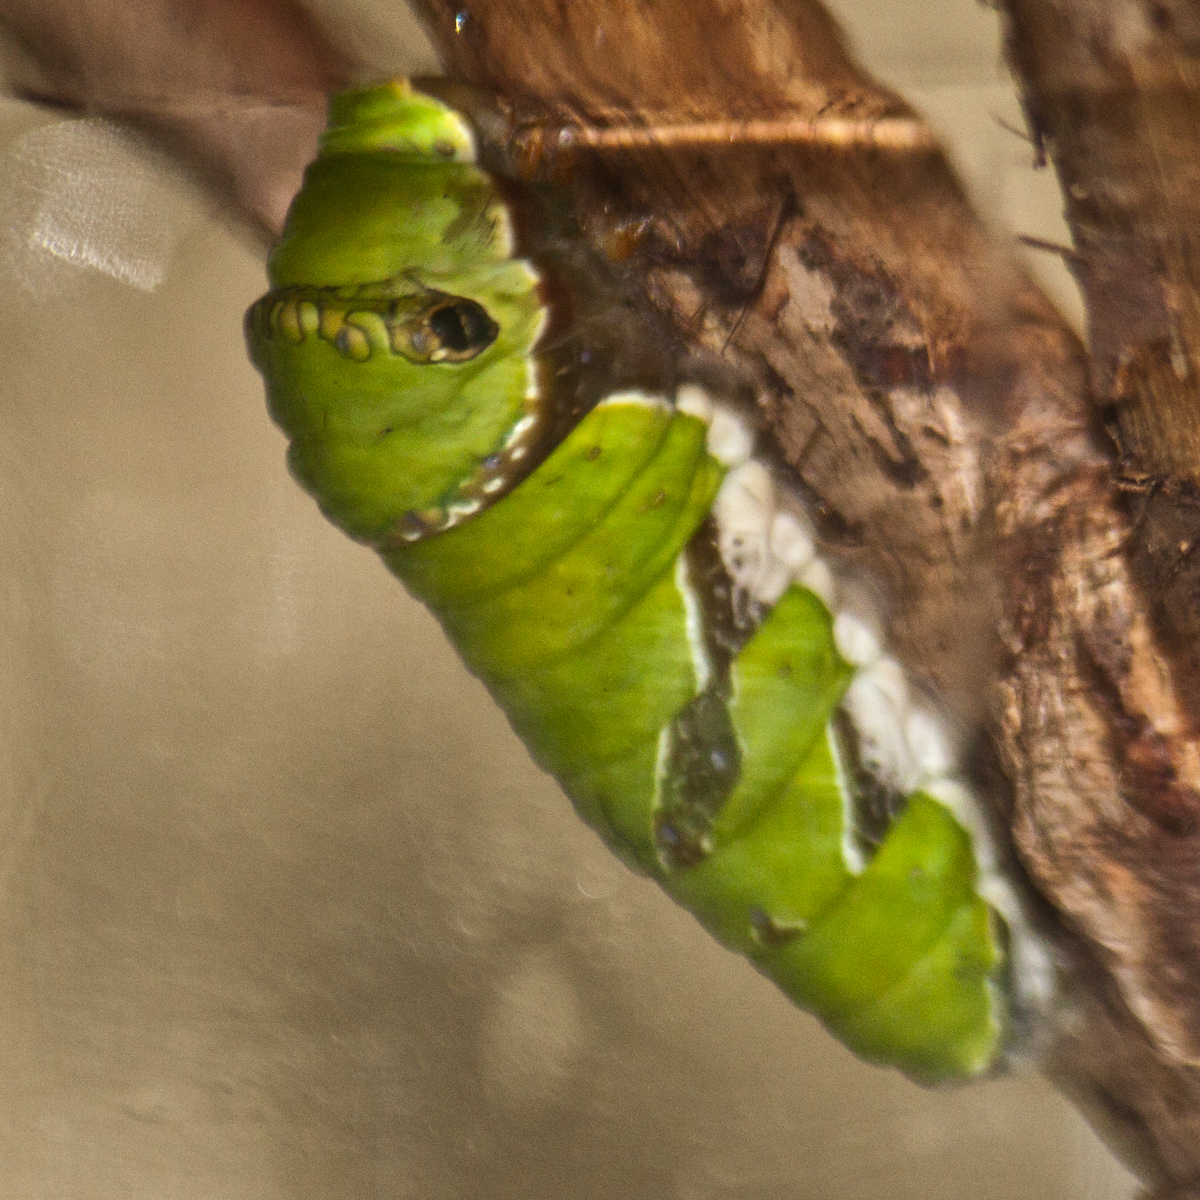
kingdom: Animalia
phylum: Arthropoda
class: Insecta
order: Lepidoptera
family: Papilionidae
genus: Papilio
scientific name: Papilio polytes
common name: Common mormon
